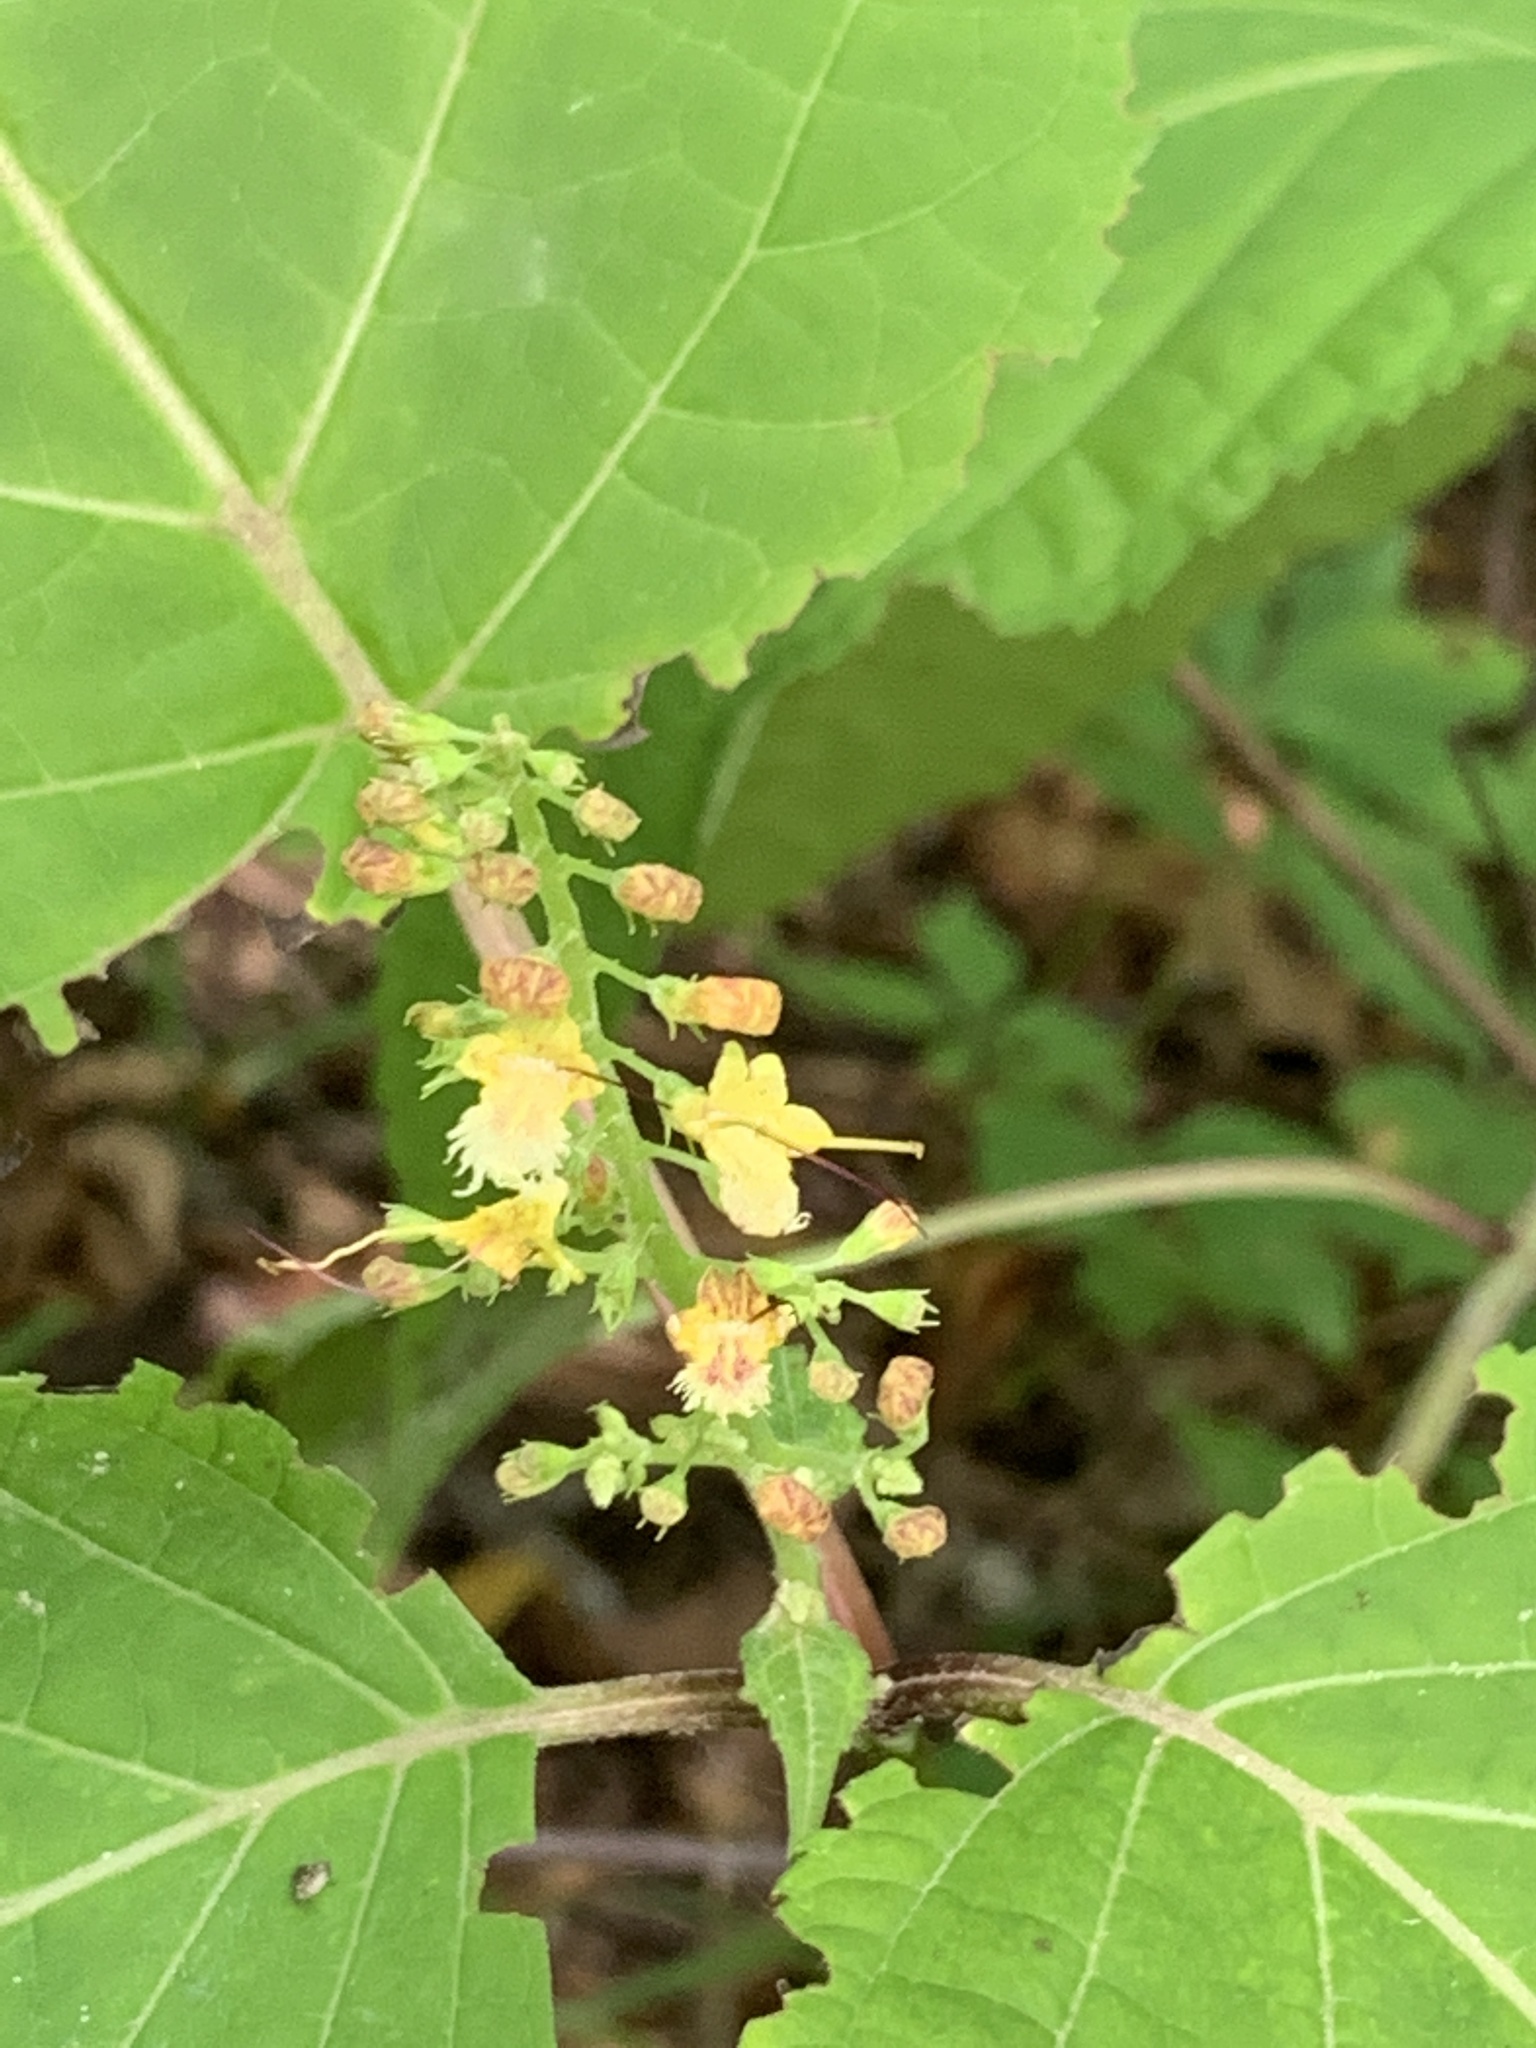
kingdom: Plantae
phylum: Tracheophyta
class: Magnoliopsida
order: Lamiales
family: Lamiaceae
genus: Collinsonia
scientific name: Collinsonia canadensis
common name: Northern horsebalm
